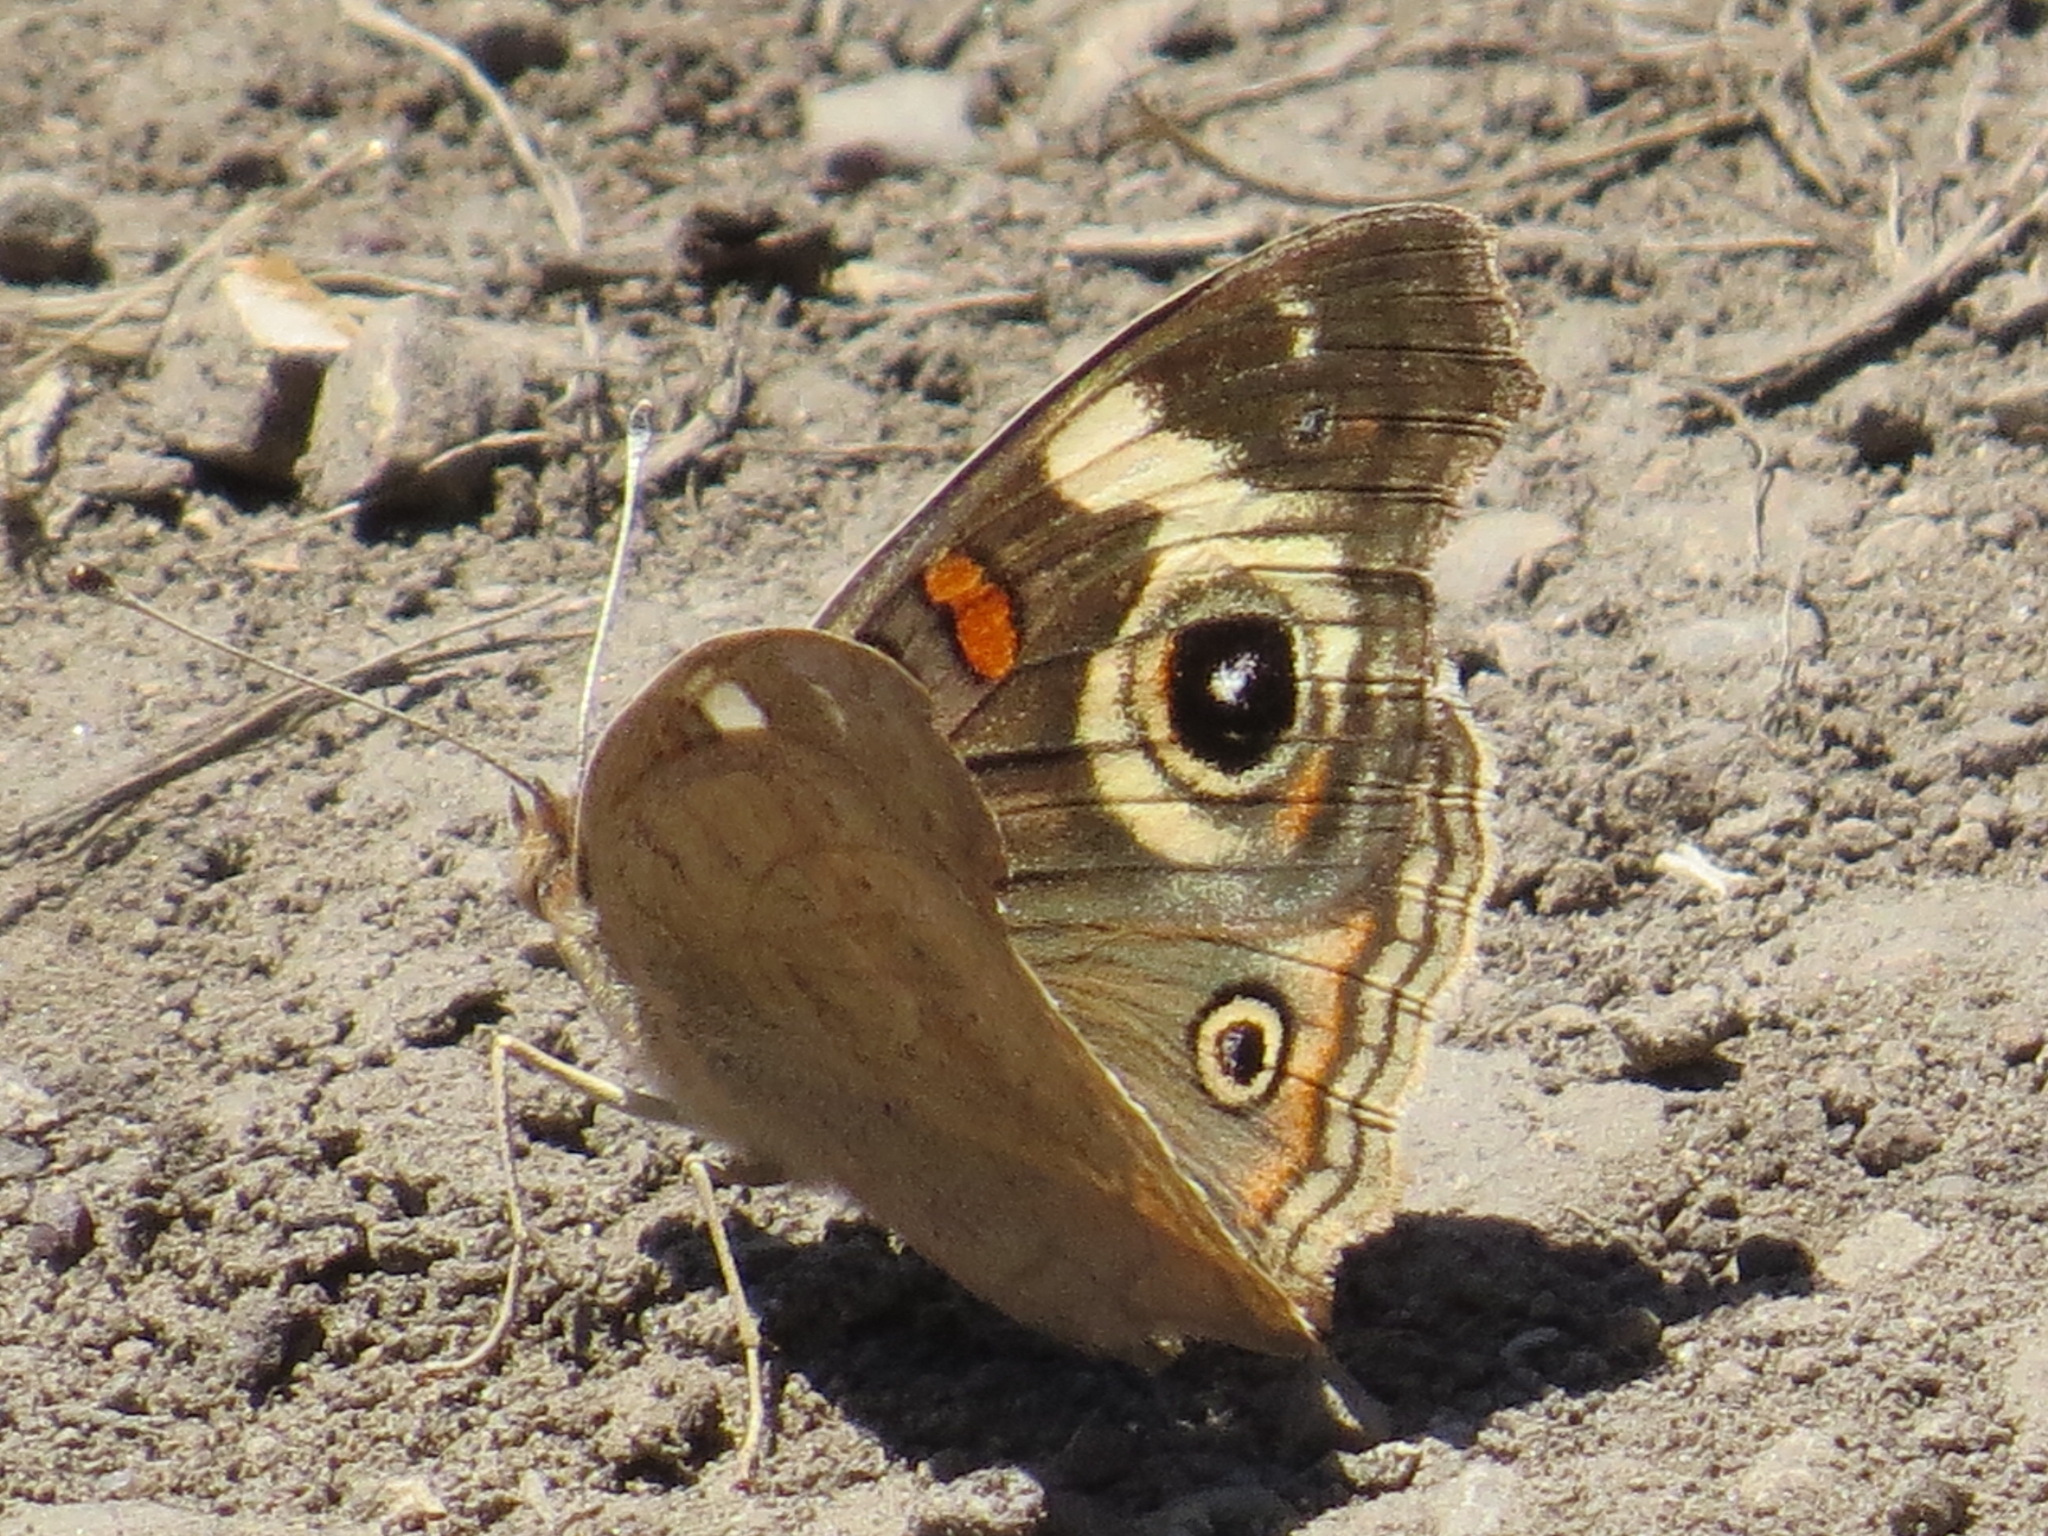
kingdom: Animalia
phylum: Arthropoda
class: Insecta
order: Lepidoptera
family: Nymphalidae
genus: Junonia
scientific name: Junonia grisea
